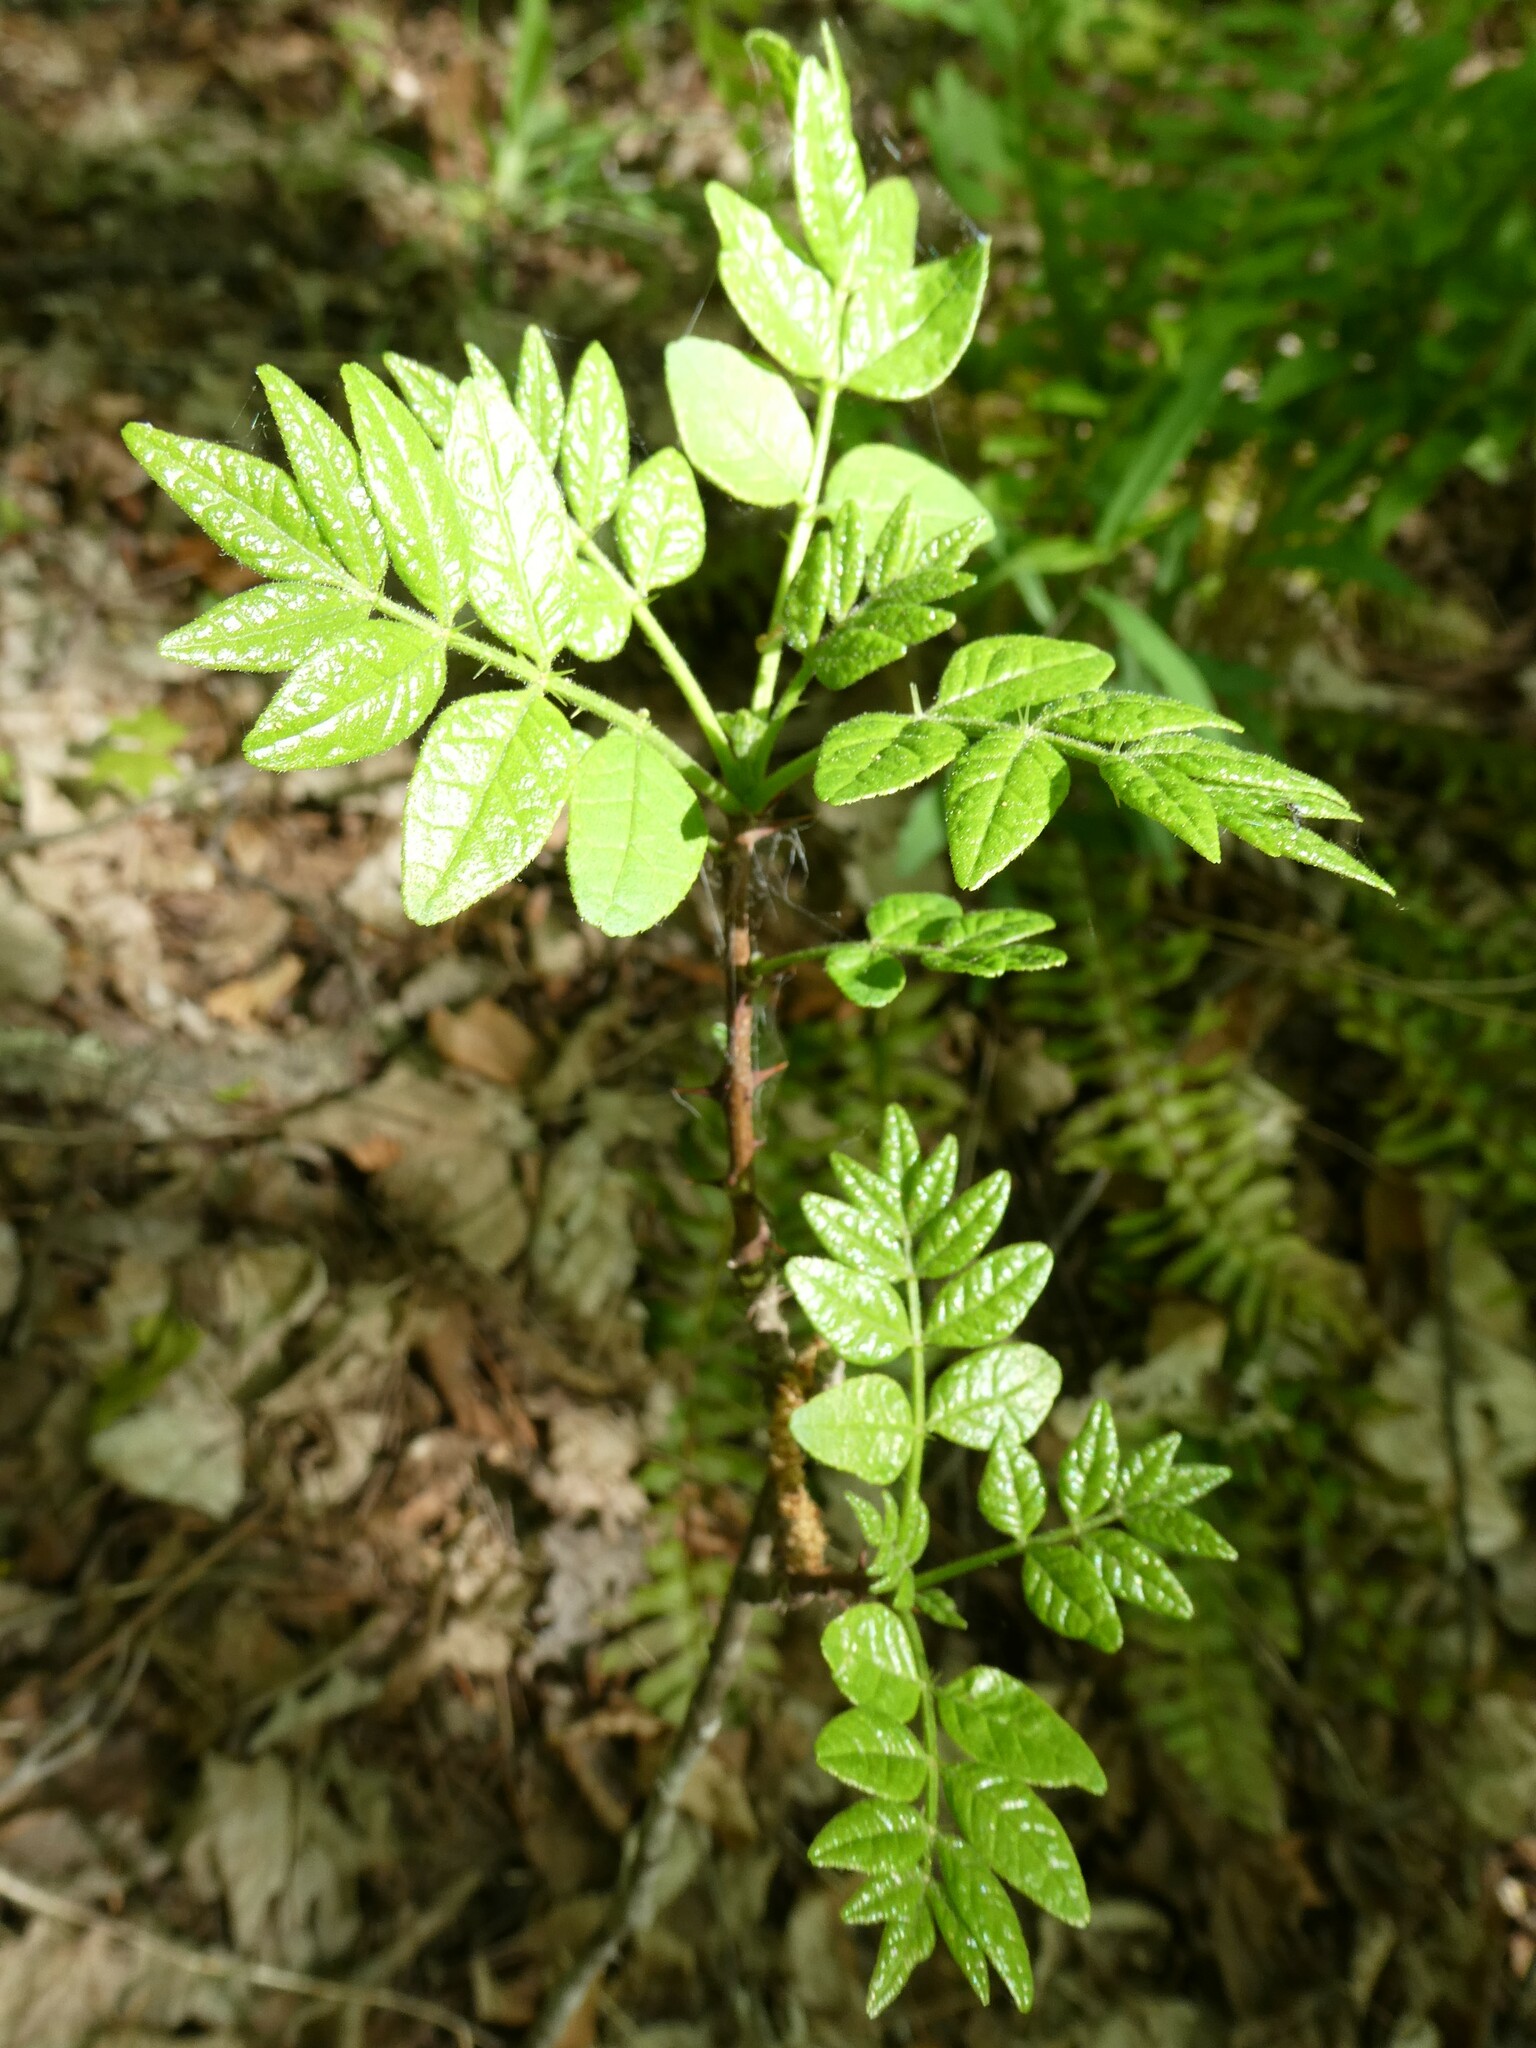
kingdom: Plantae
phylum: Tracheophyta
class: Magnoliopsida
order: Sapindales
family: Rutaceae
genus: Zanthoxylum
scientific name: Zanthoxylum americanum
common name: Northern prickly-ash
